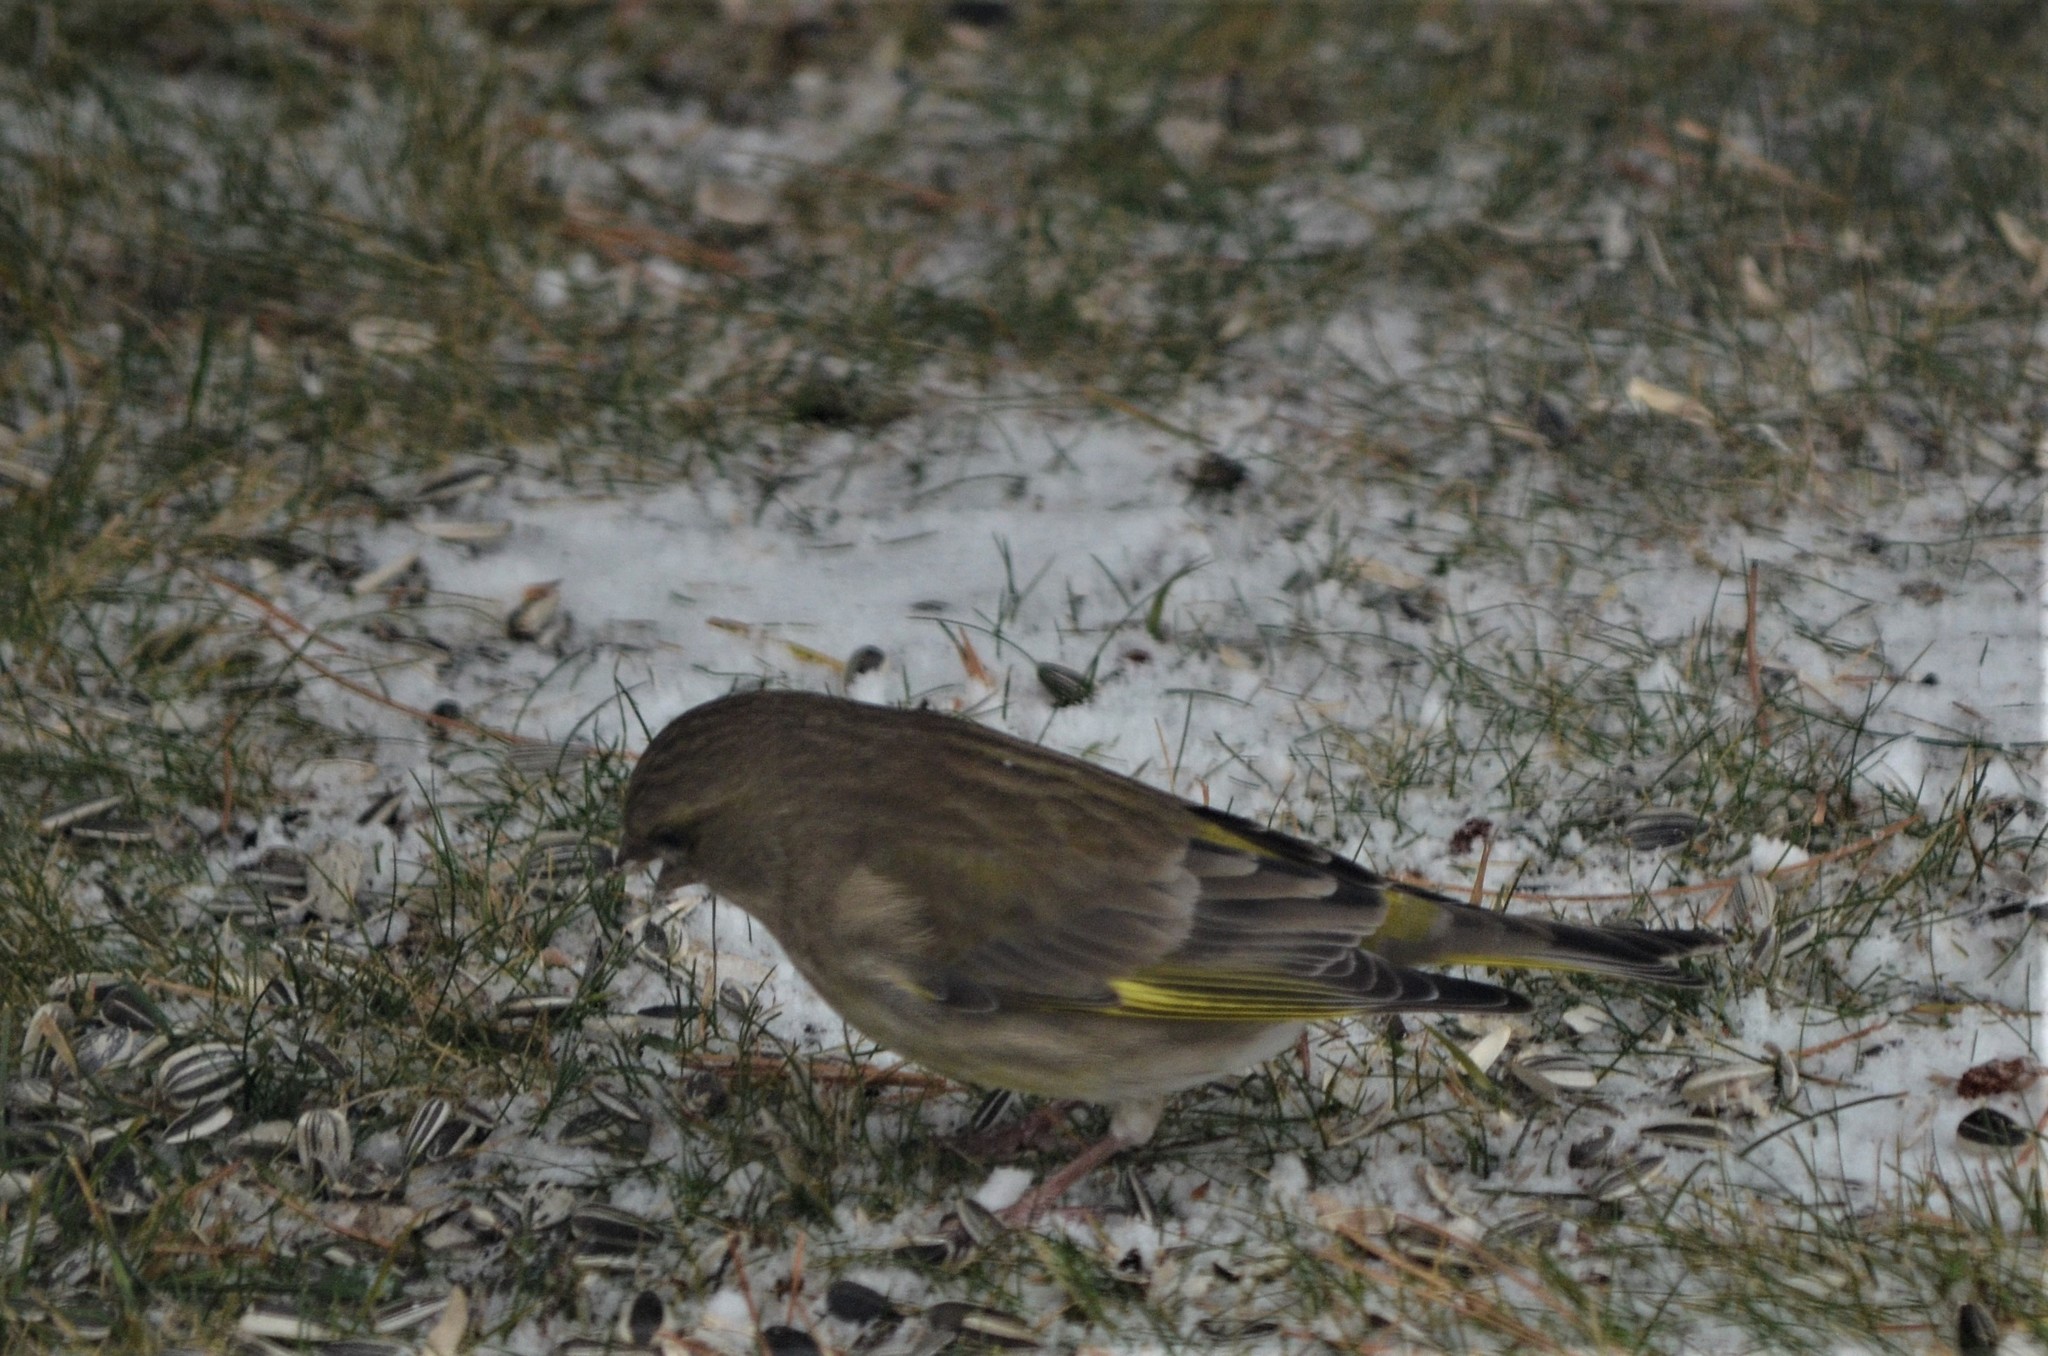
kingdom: Plantae
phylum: Tracheophyta
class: Liliopsida
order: Poales
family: Poaceae
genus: Chloris
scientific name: Chloris chloris
